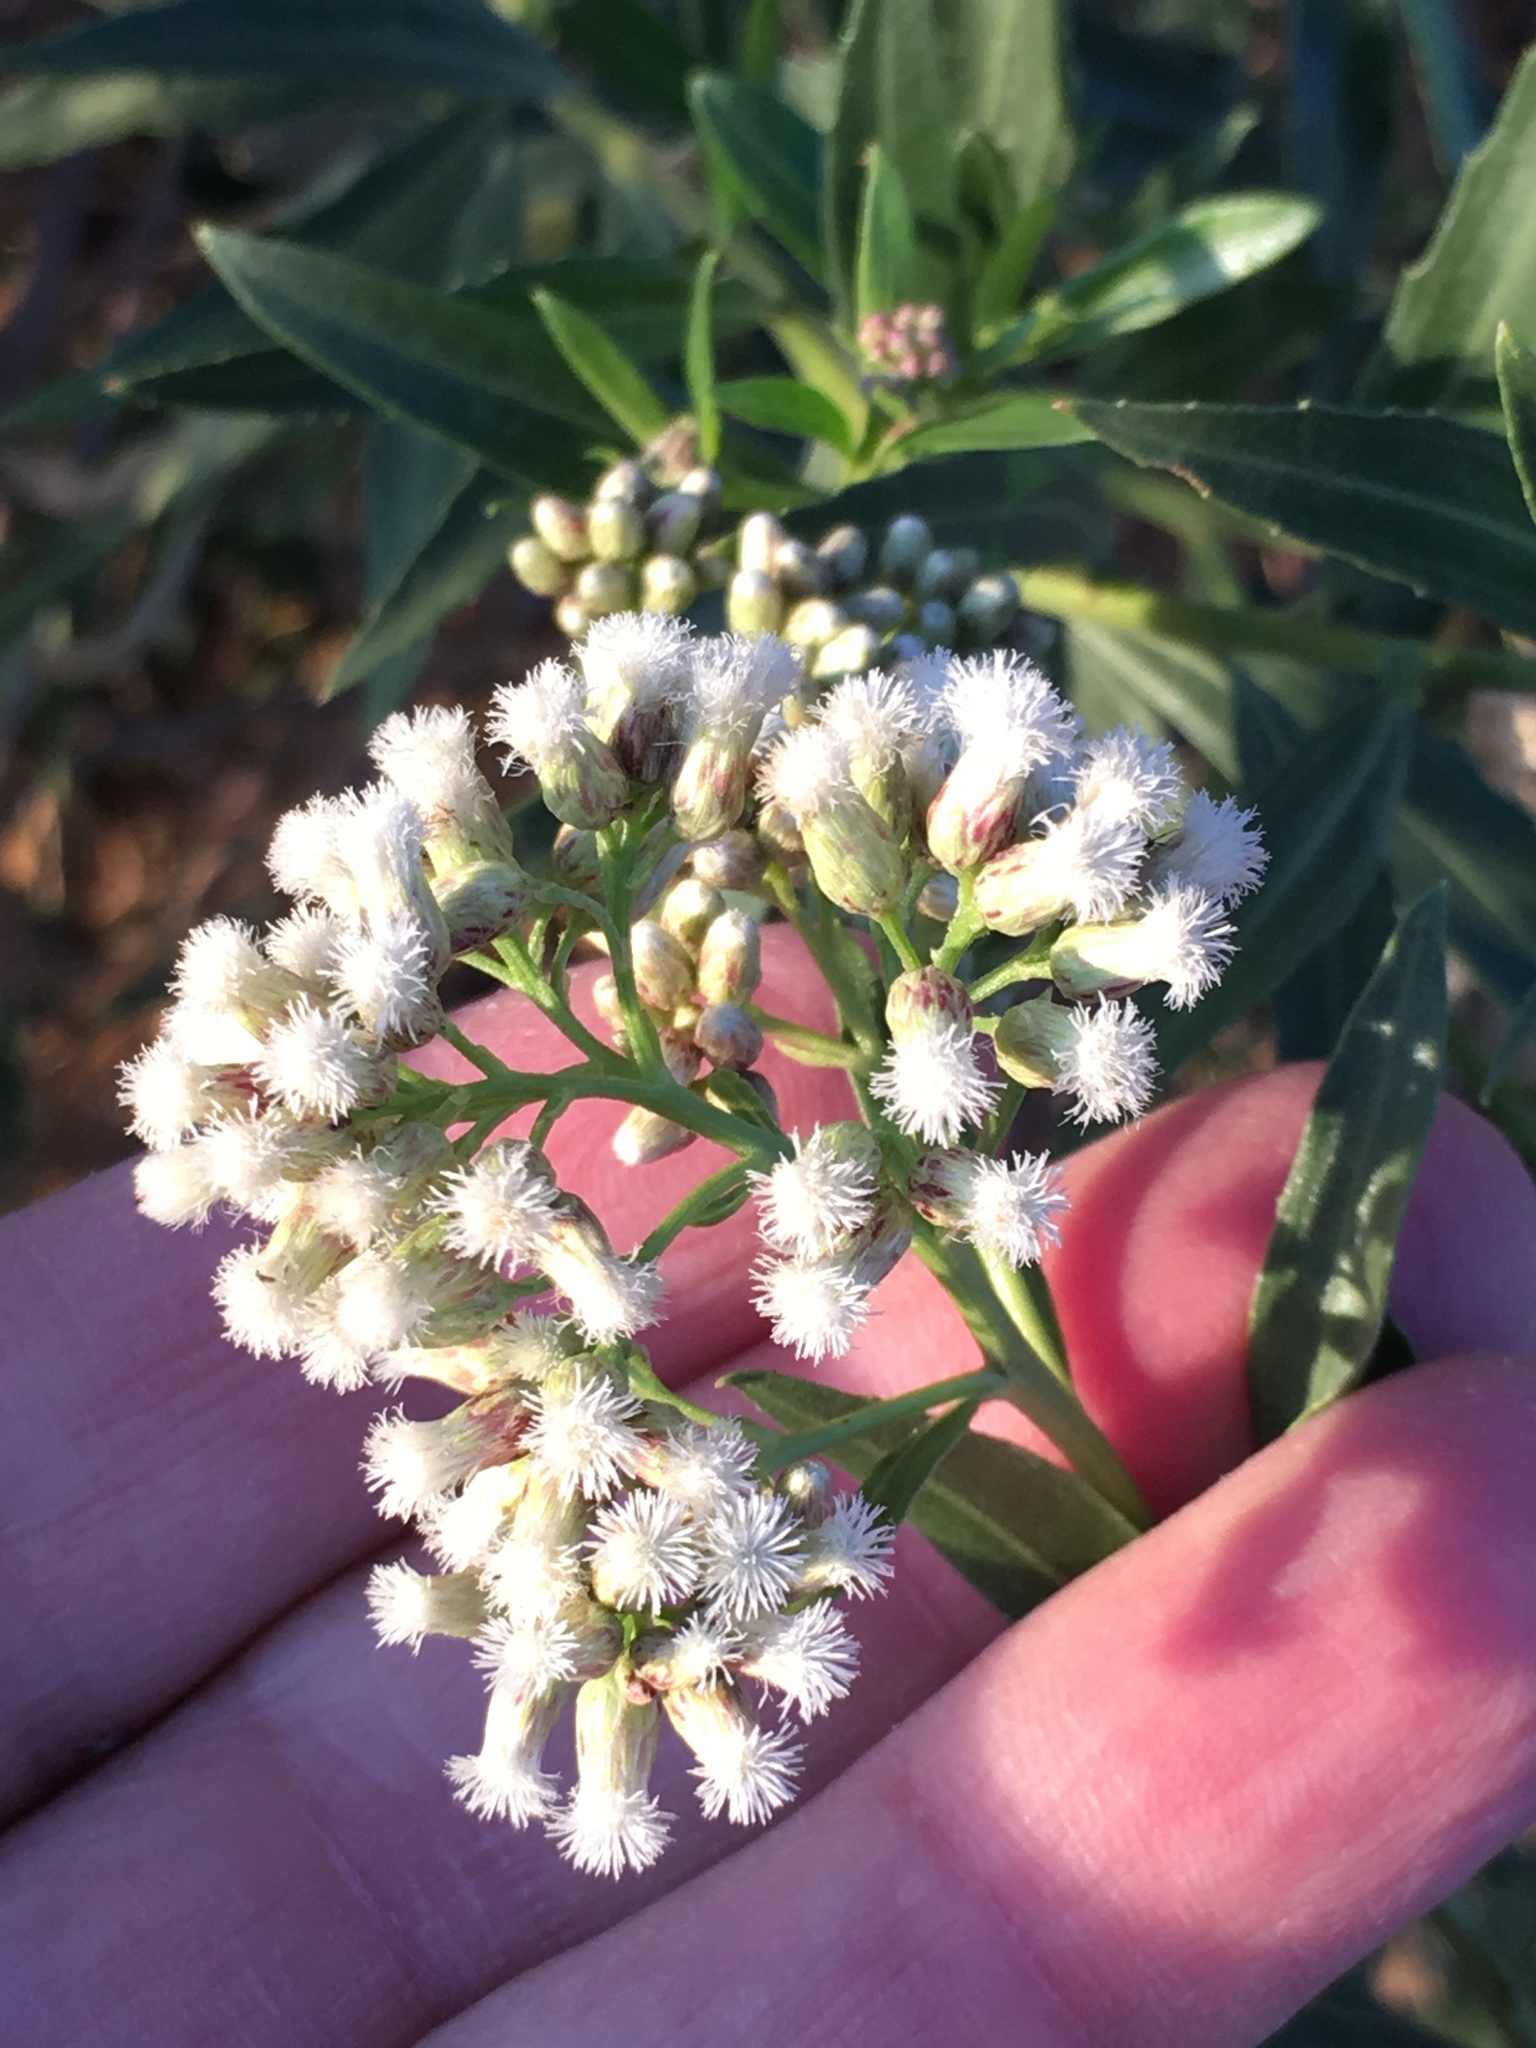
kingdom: Plantae
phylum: Tracheophyta
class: Magnoliopsida
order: Asterales
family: Asteraceae
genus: Baccharis
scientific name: Baccharis salicifolia
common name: Sticky baccharis
